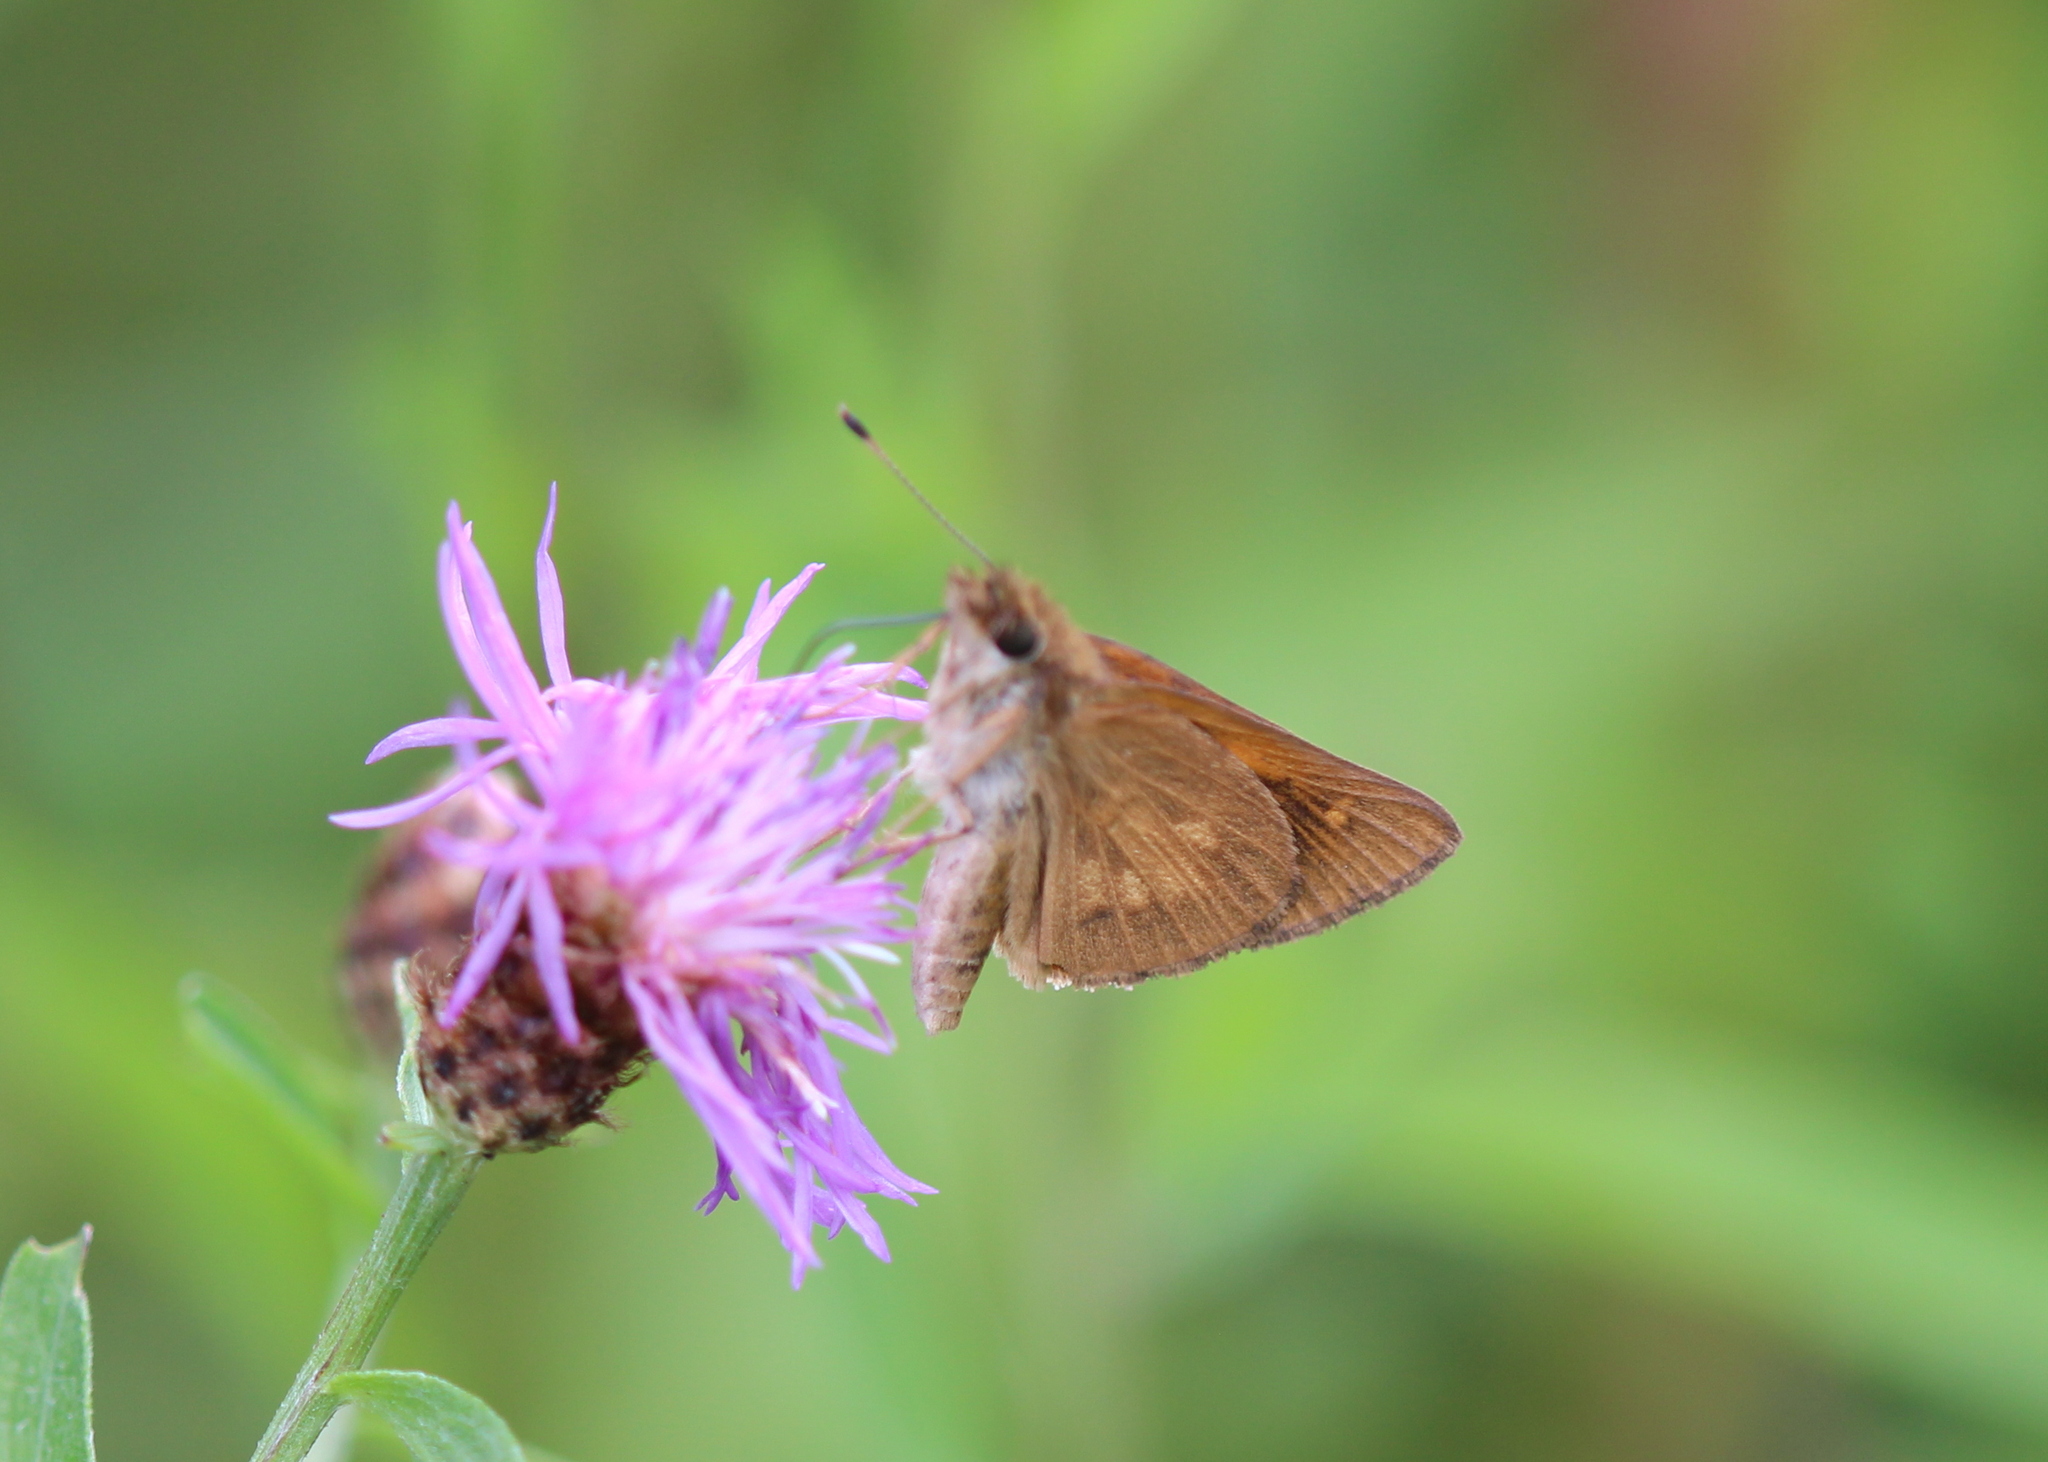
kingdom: Animalia
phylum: Arthropoda
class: Insecta
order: Lepidoptera
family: Hesperiidae
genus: Poanes
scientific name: Poanes viator
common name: Broad-winged skipper
